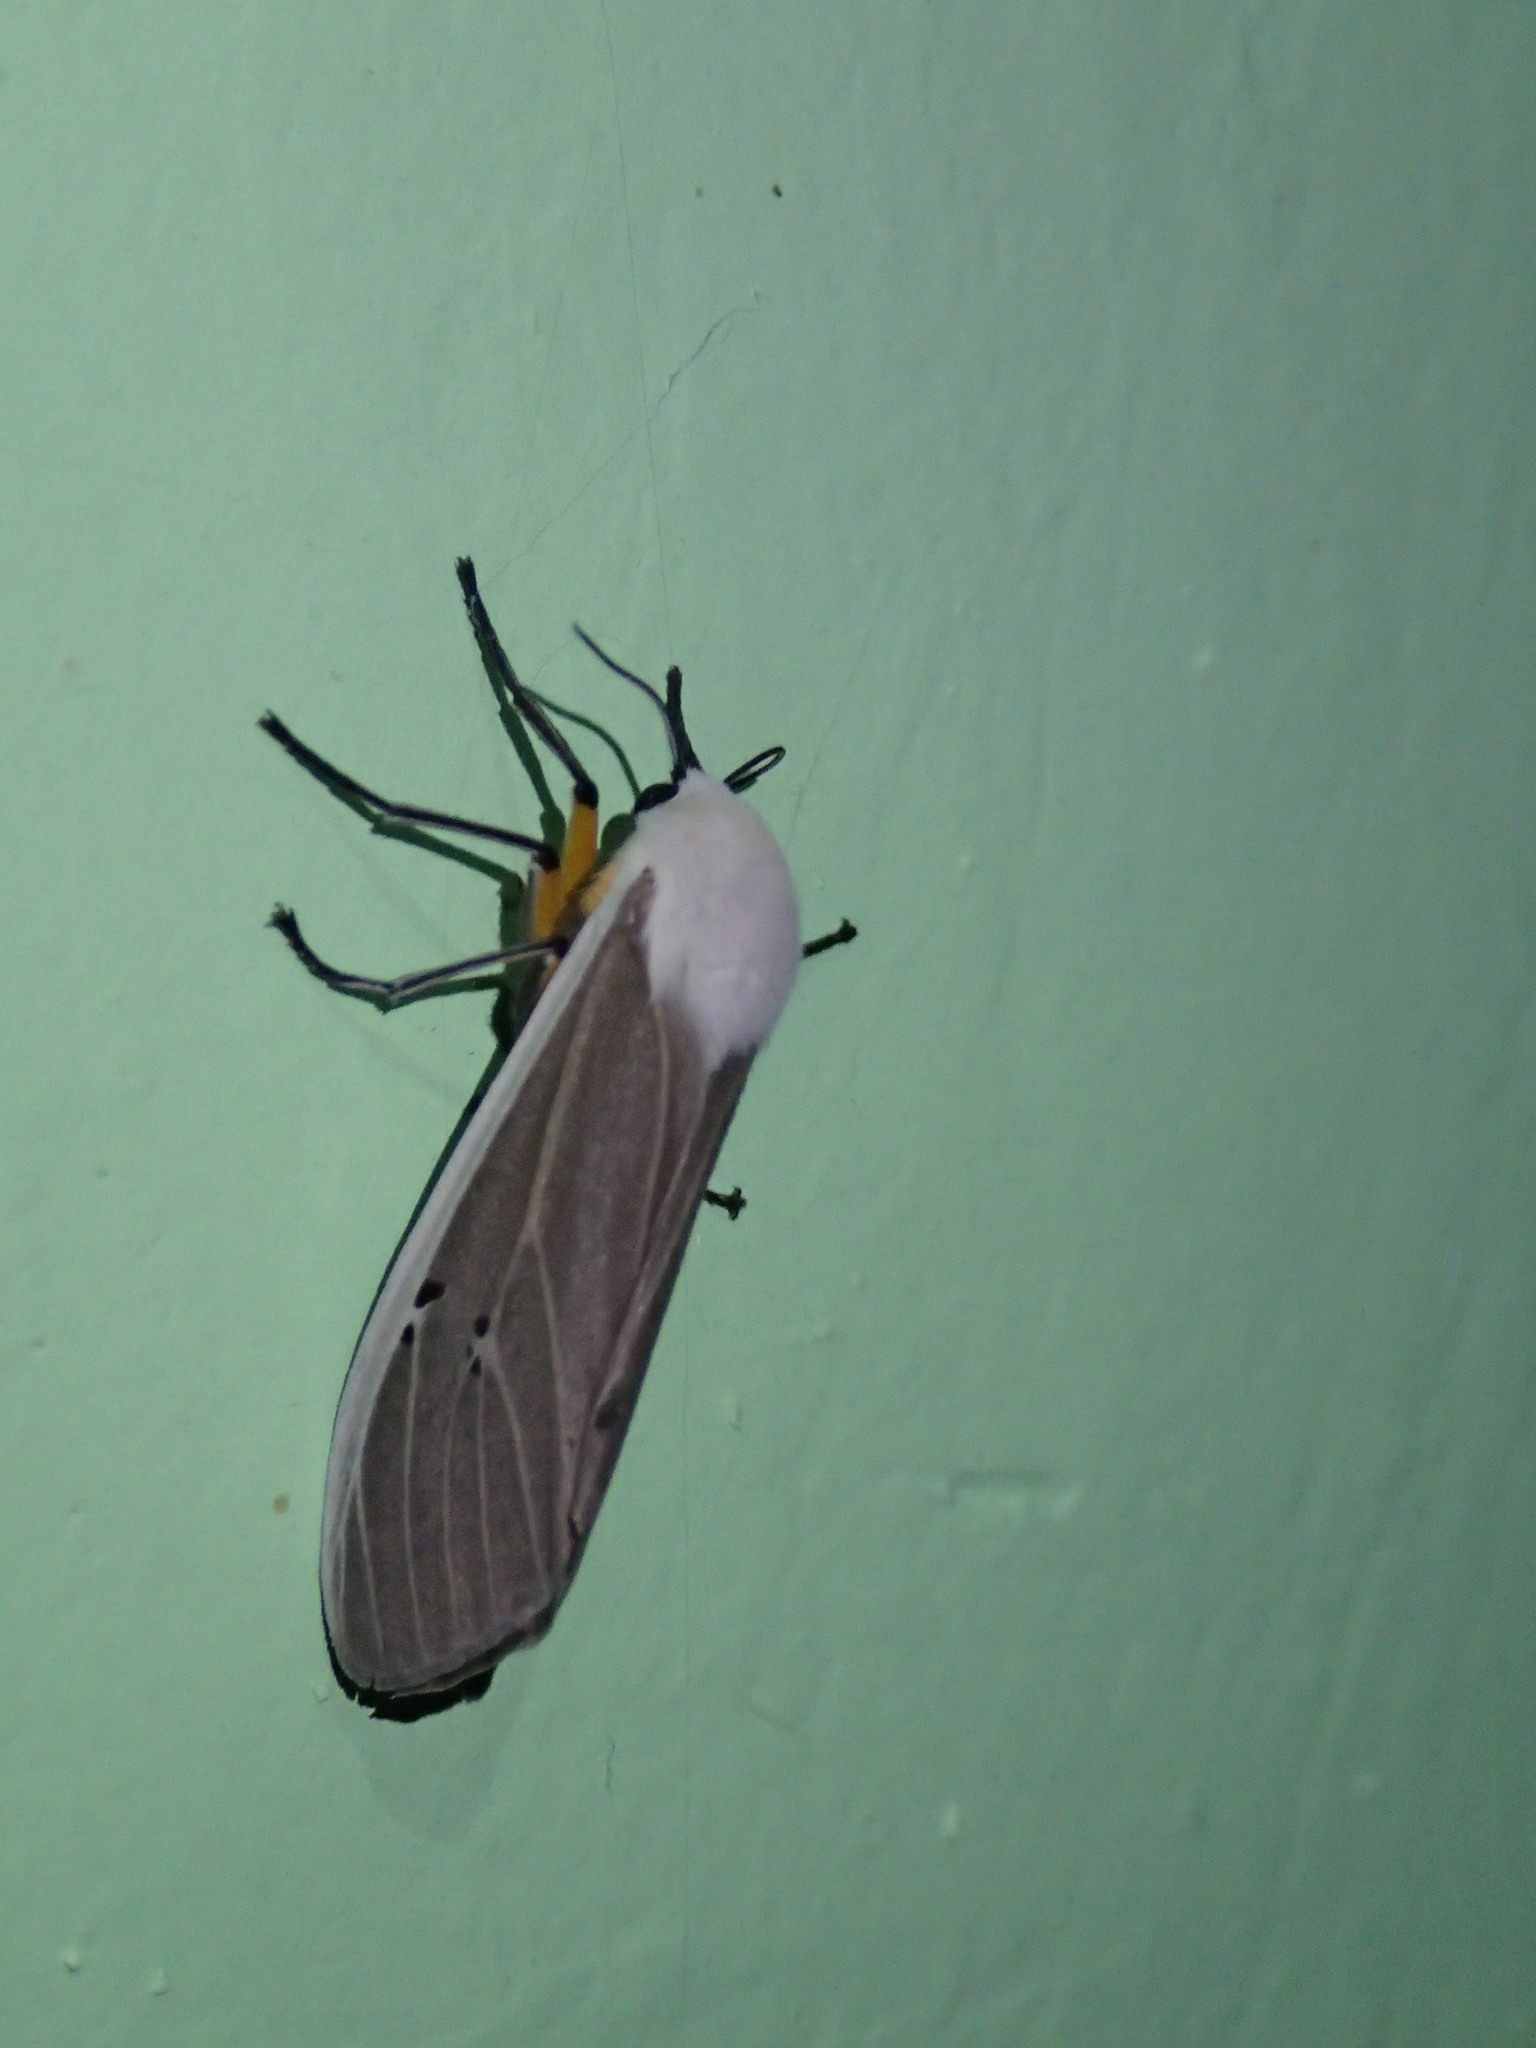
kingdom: Animalia
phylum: Arthropoda
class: Insecta
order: Lepidoptera
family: Erebidae
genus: Creatonotos
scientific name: Creatonotos transiens
